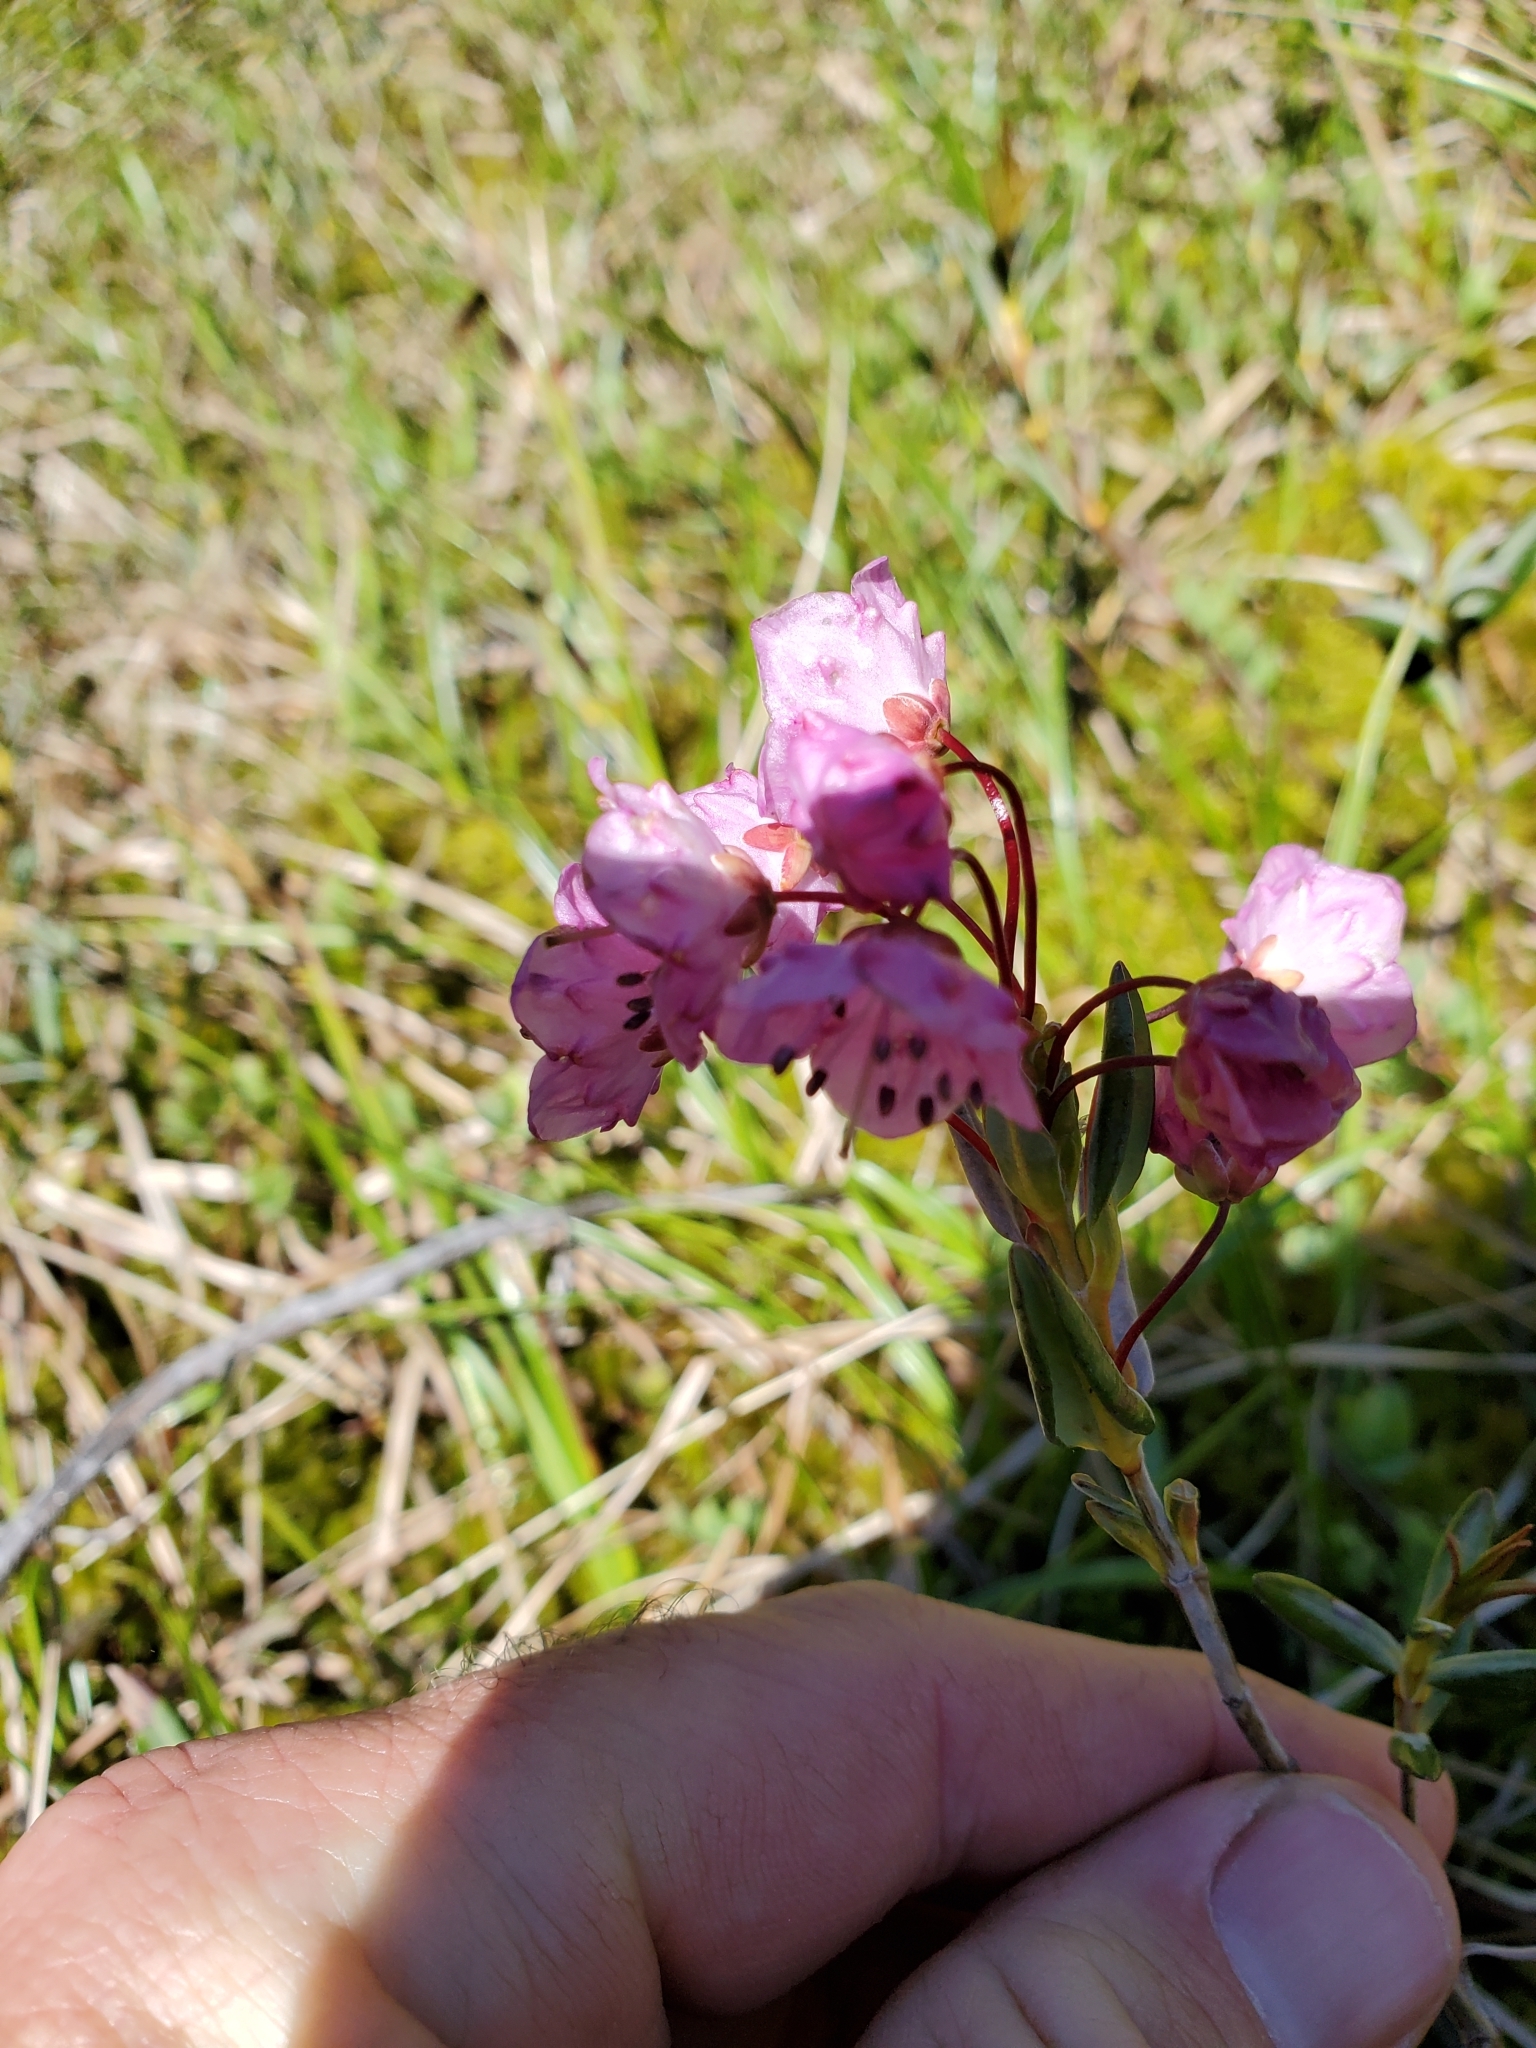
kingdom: Plantae
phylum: Tracheophyta
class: Magnoliopsida
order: Ericales
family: Ericaceae
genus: Kalmia
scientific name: Kalmia microphylla
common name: Alpine bog laurel
